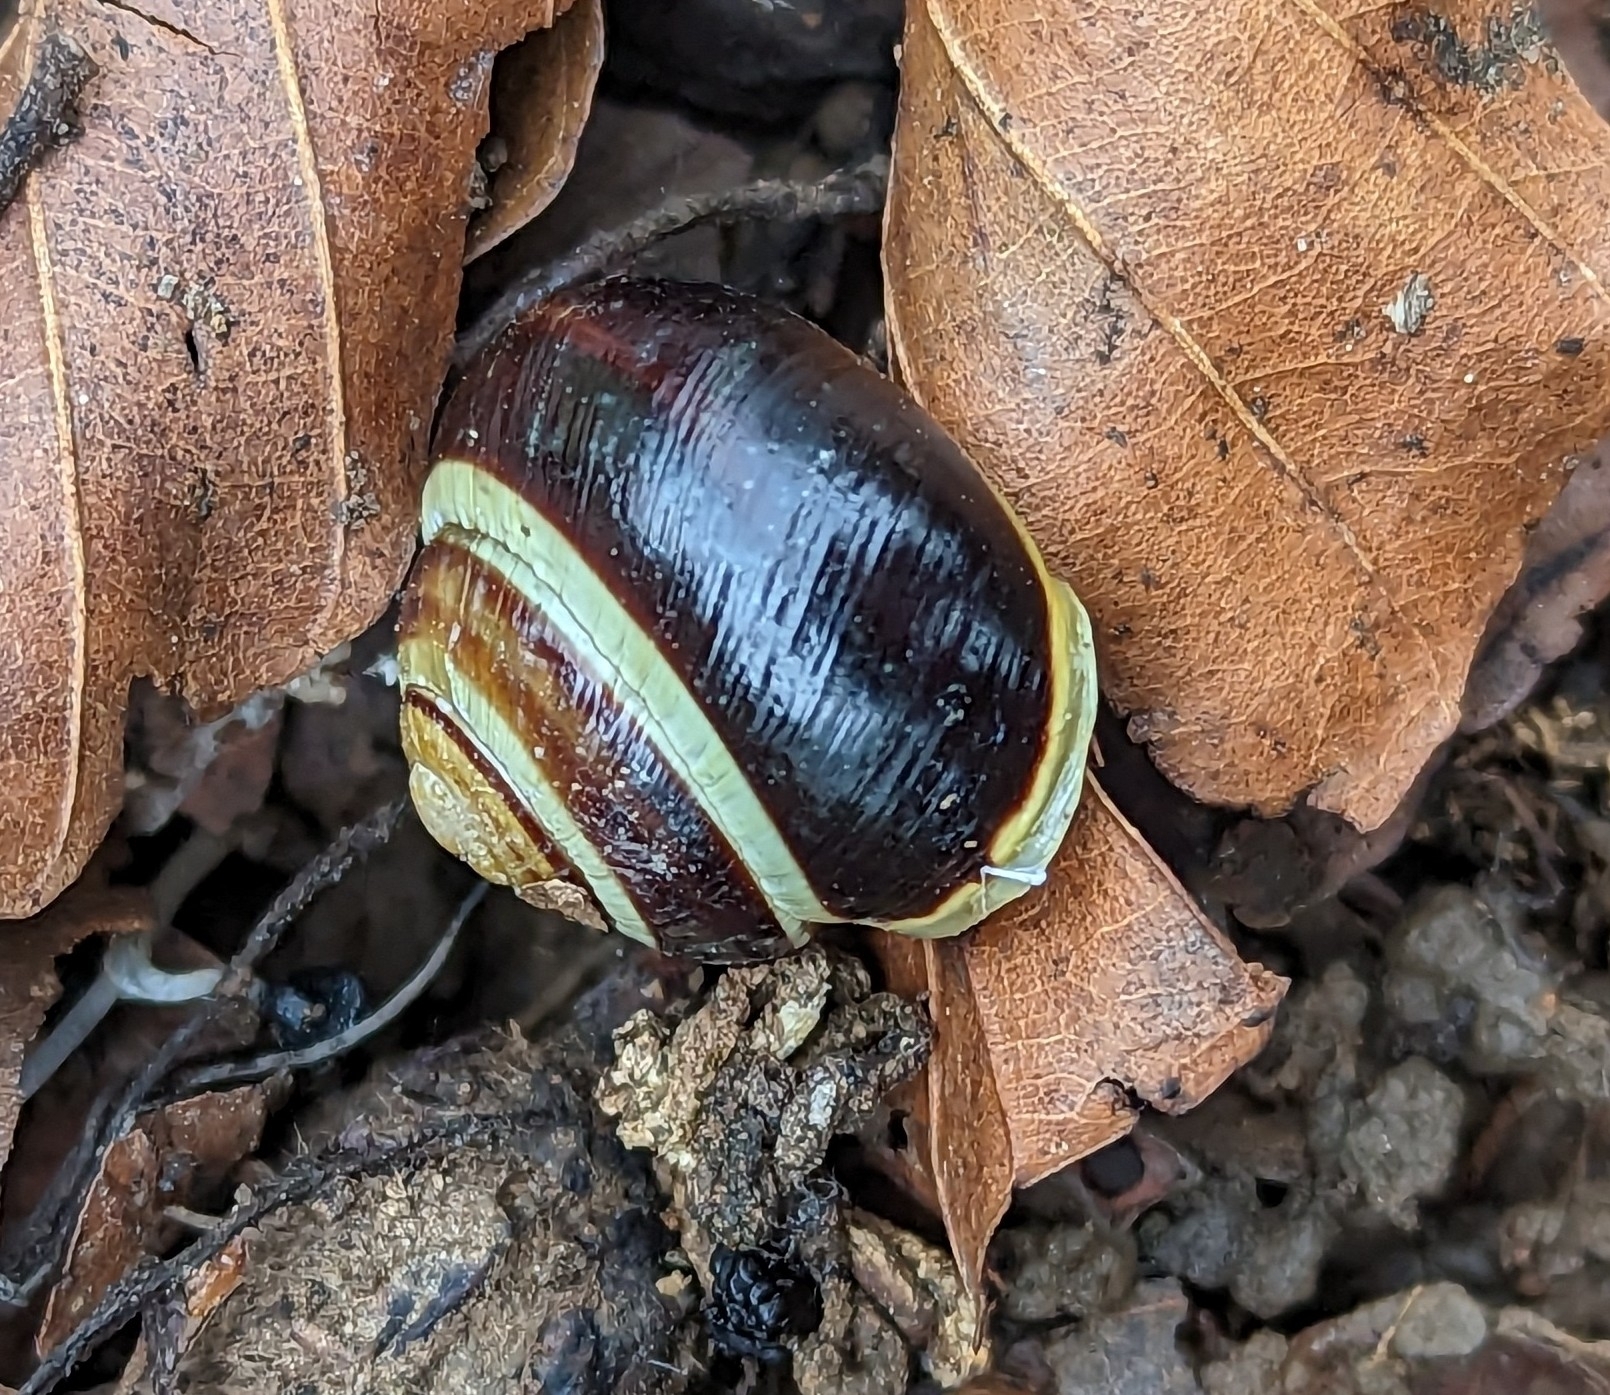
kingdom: Animalia
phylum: Mollusca
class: Gastropoda
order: Stylommatophora
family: Helicidae
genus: Cepaea
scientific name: Cepaea hortensis
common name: White-lip gardensnail
